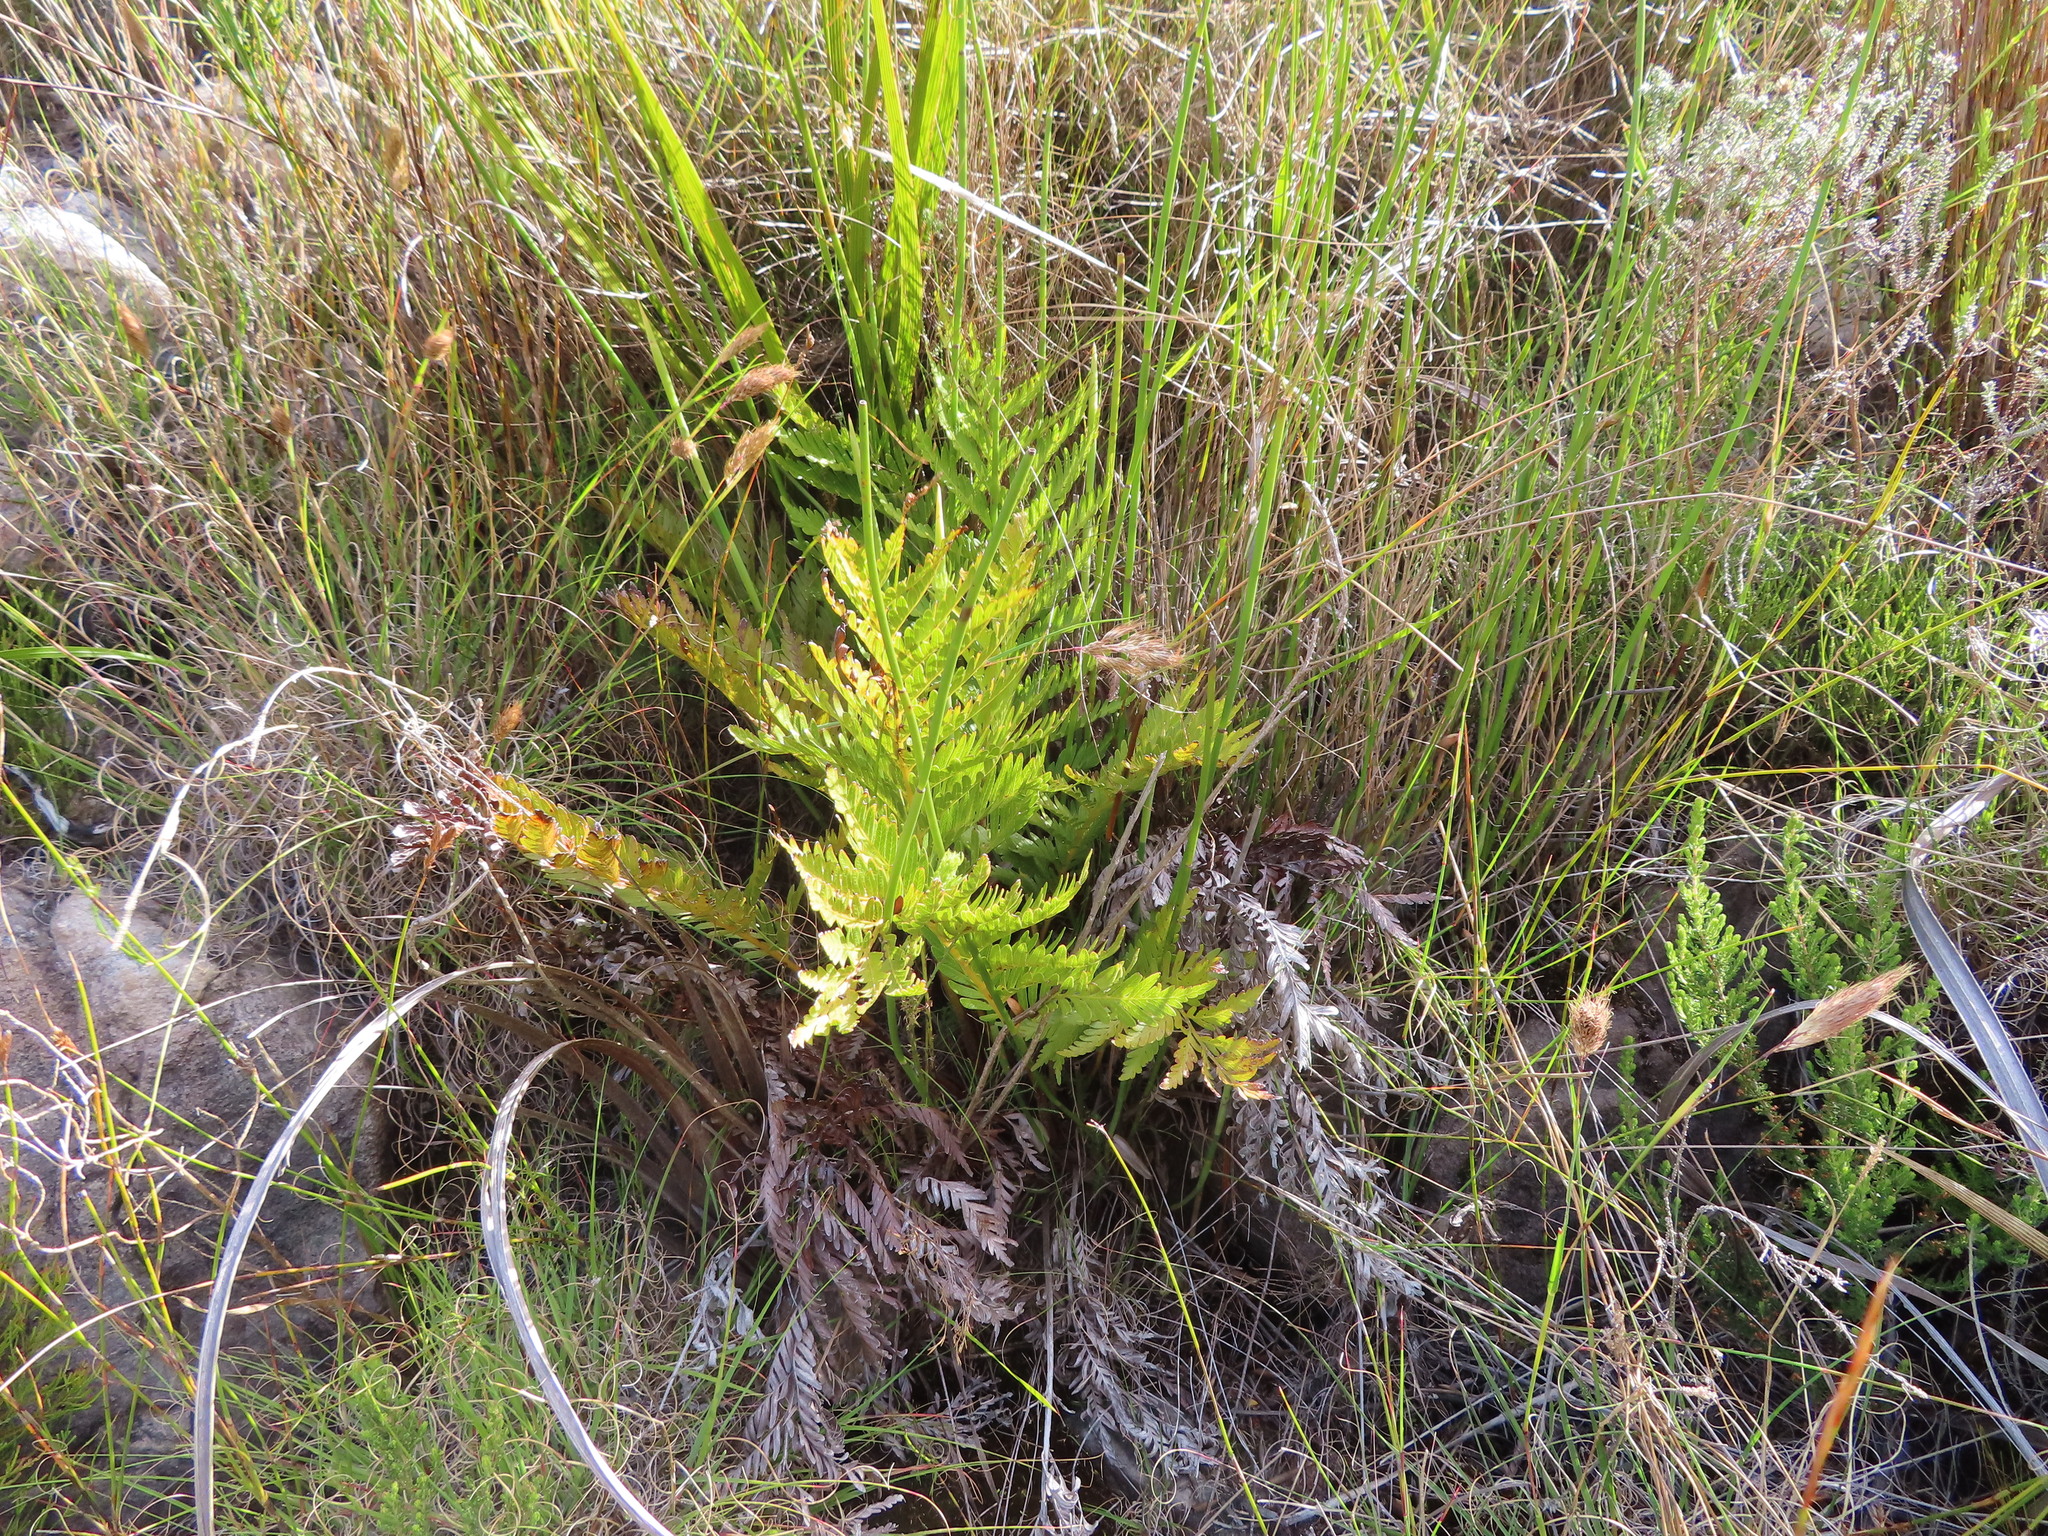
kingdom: Plantae
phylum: Tracheophyta
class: Polypodiopsida
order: Osmundales
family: Osmundaceae
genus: Todea
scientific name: Todea barbara
